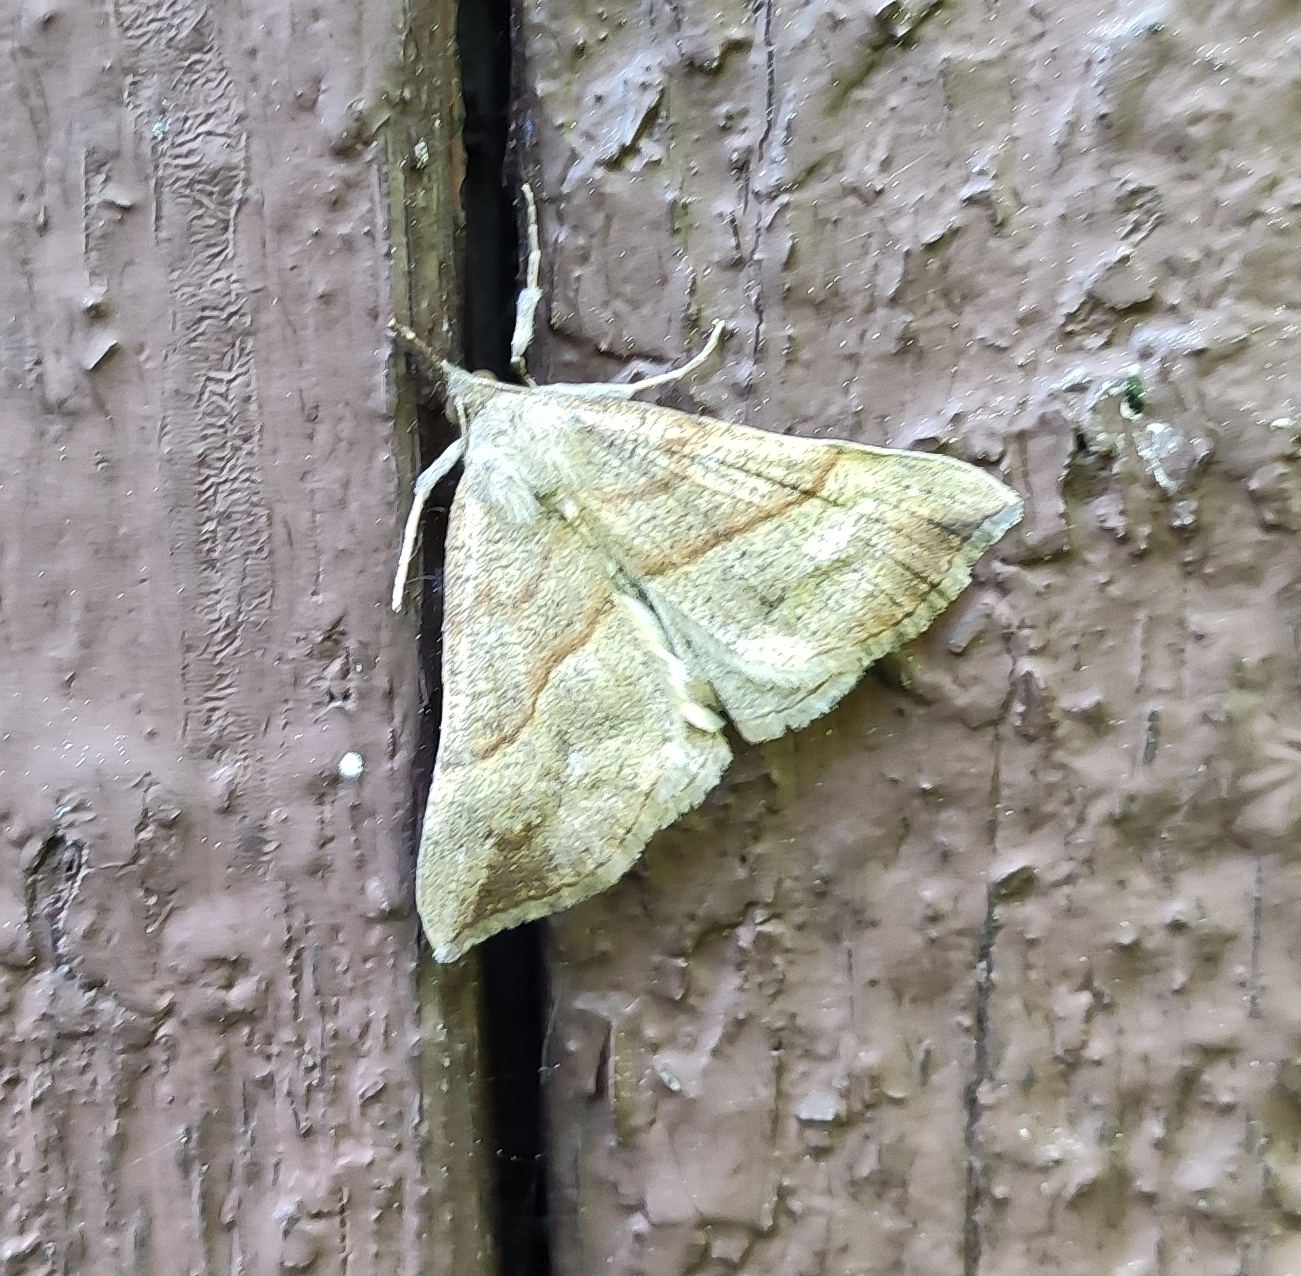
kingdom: Animalia
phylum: Arthropoda
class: Insecta
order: Lepidoptera
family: Erebidae
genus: Hypena
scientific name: Hypena proboscidalis
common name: Snout
